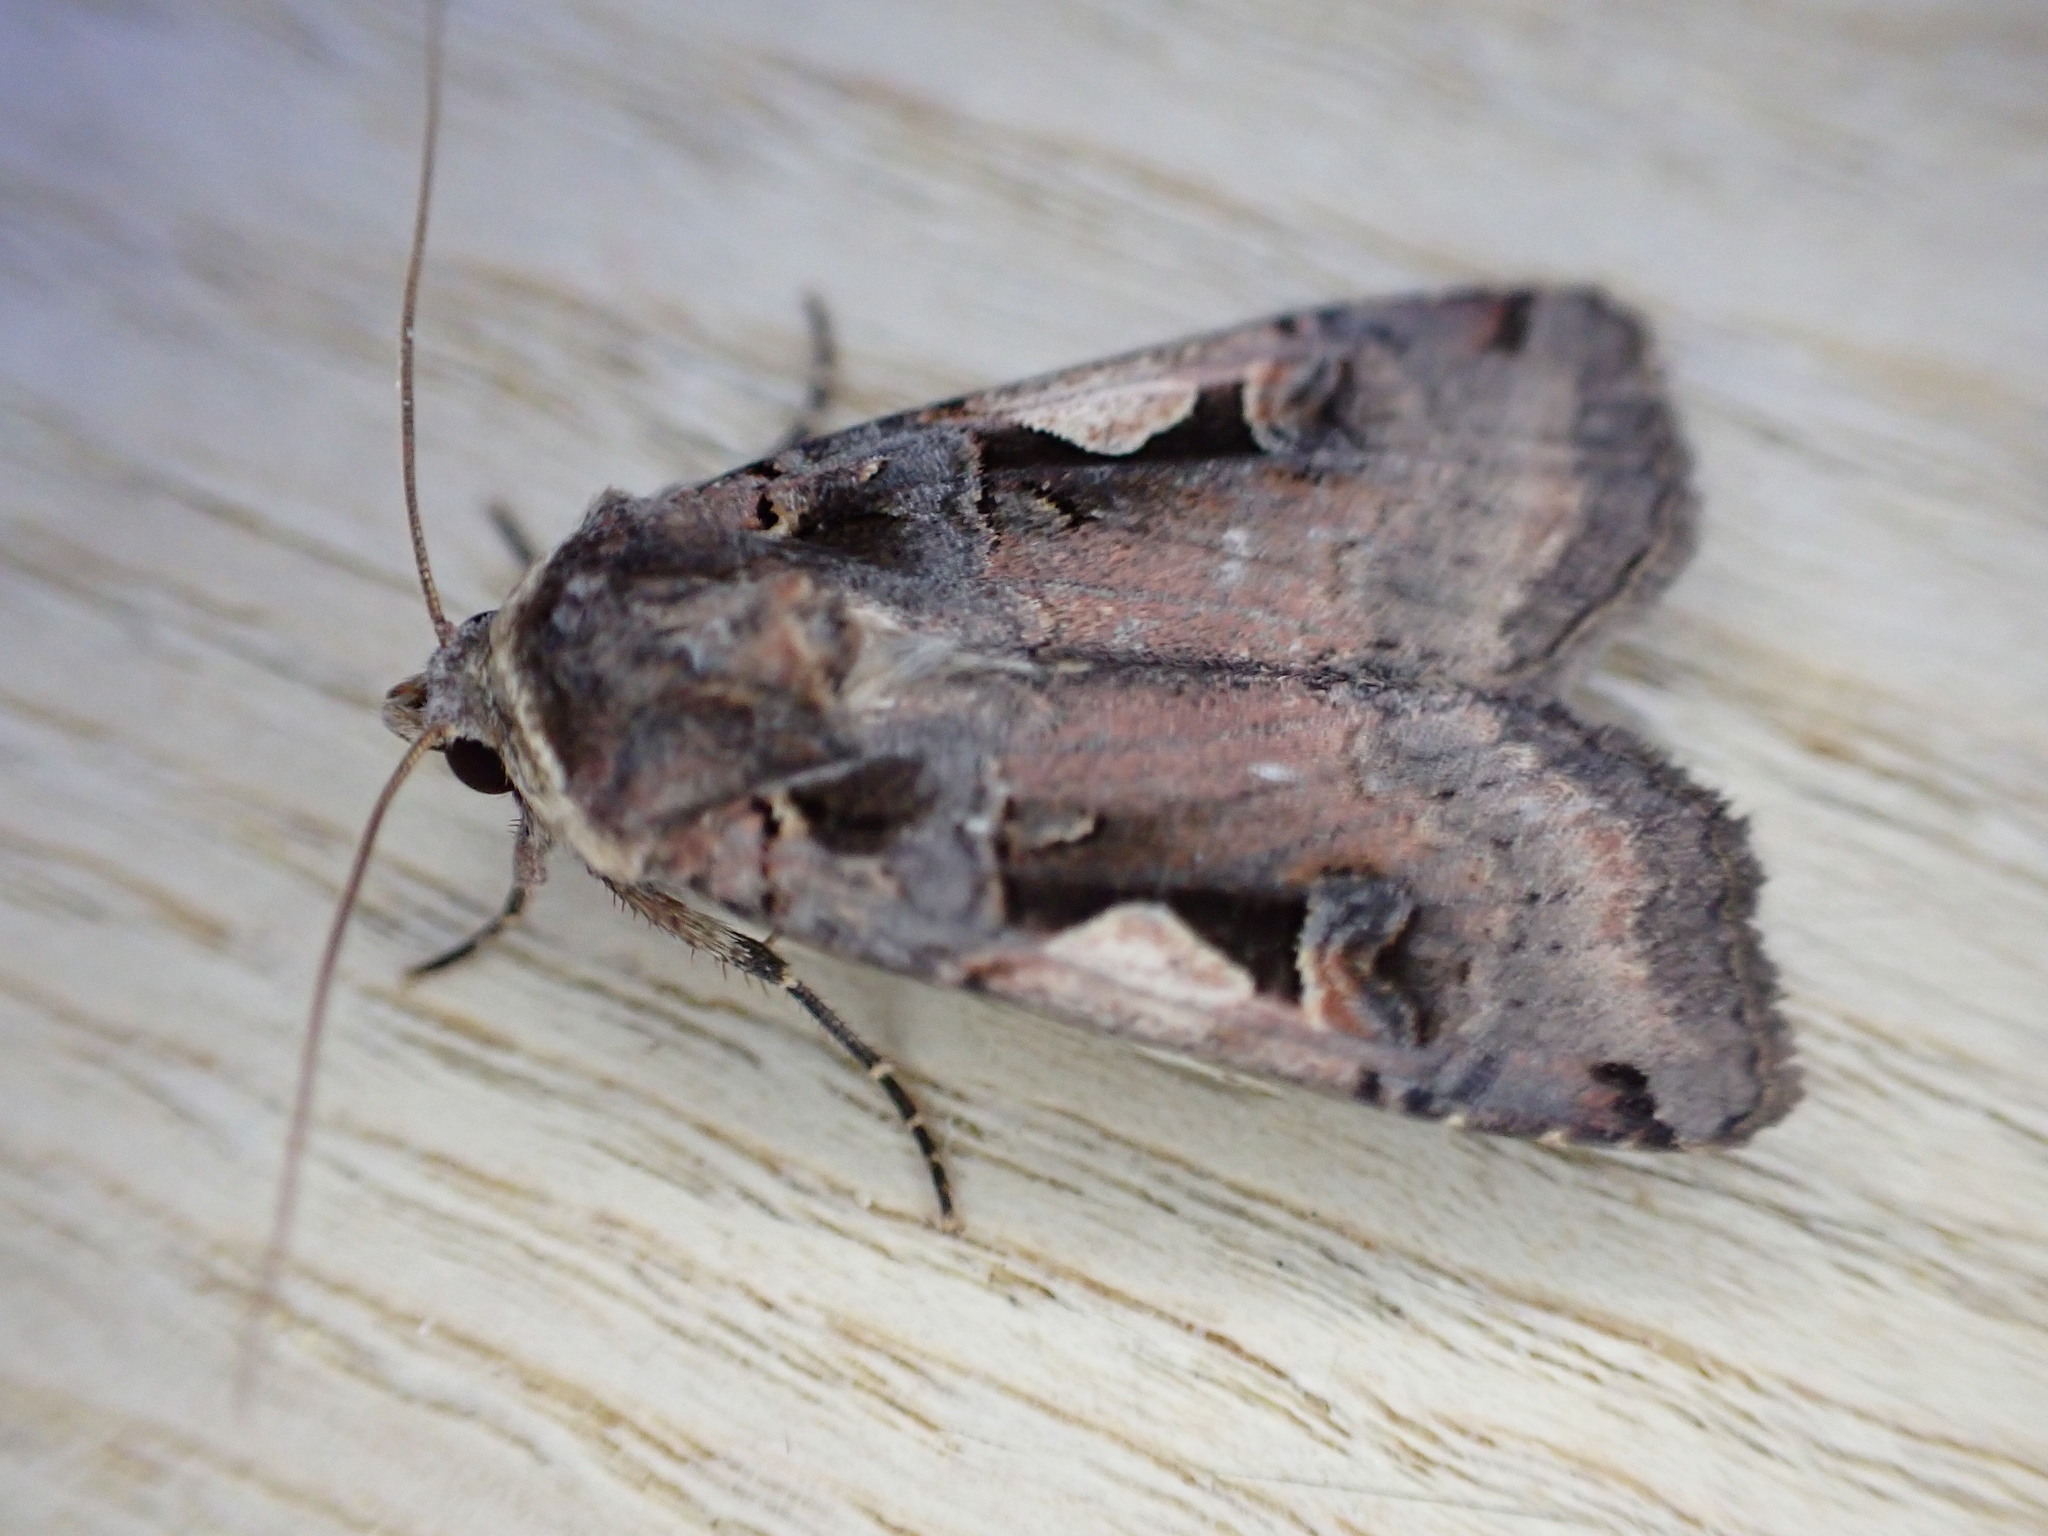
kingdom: Animalia
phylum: Arthropoda
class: Insecta
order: Lepidoptera
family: Noctuidae
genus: Xestia
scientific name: Xestia c-nigrum
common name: Setaceous hebrew character
